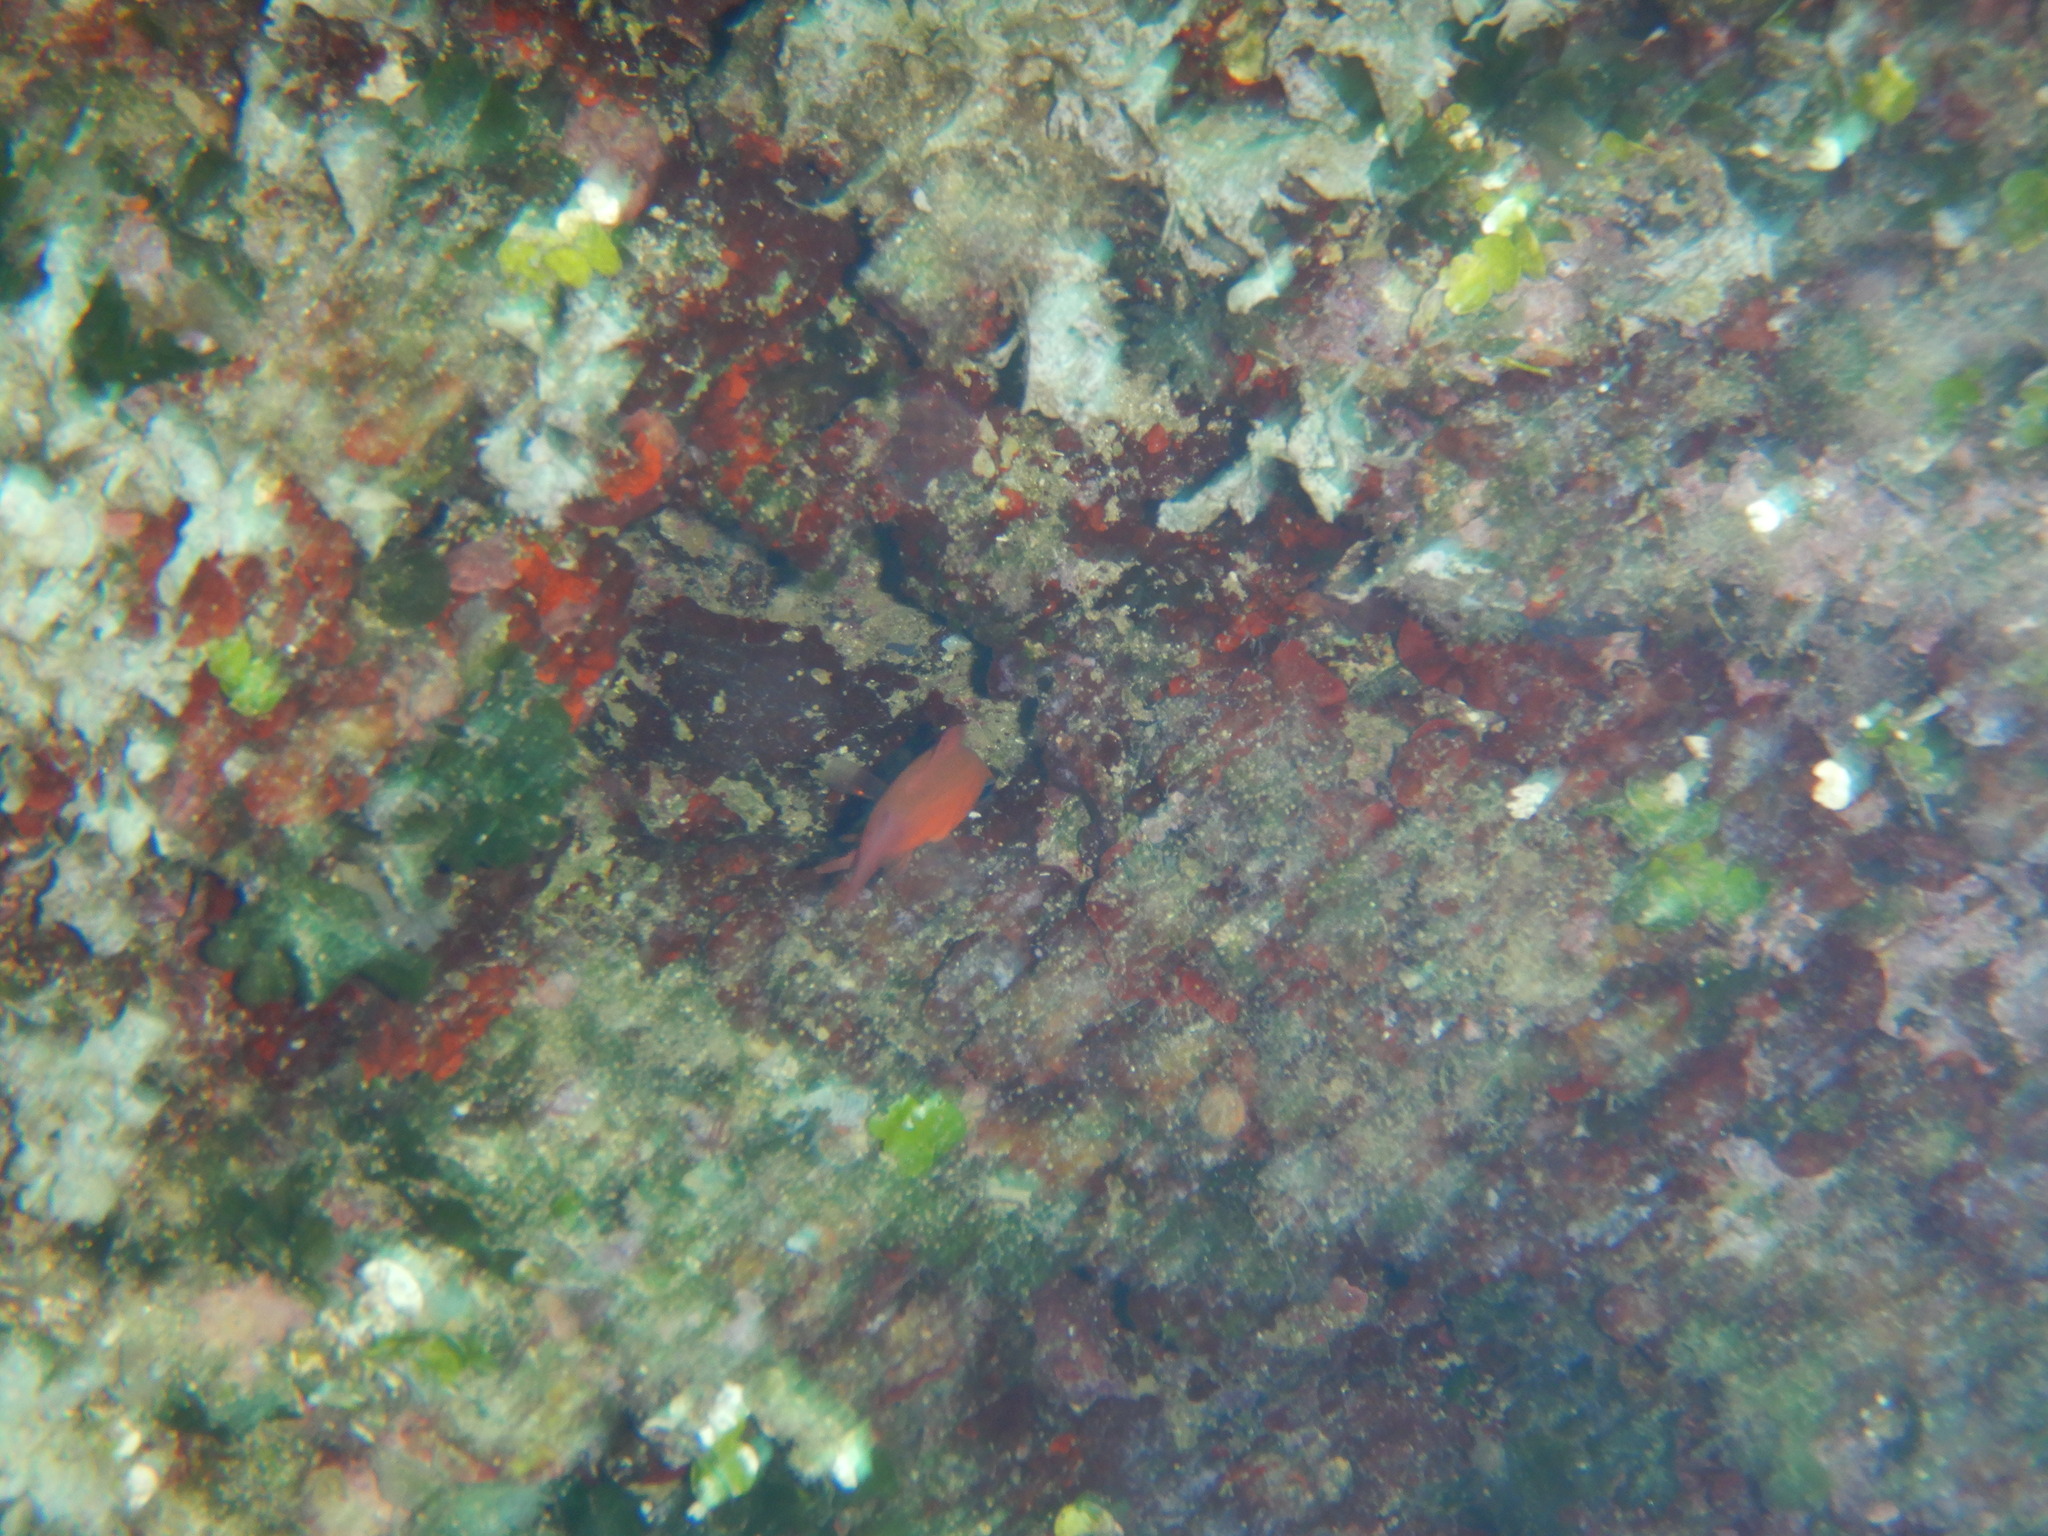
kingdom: Animalia
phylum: Chordata
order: Perciformes
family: Apogonidae
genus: Apogon
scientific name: Apogon imberbis
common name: Cardinal fish
